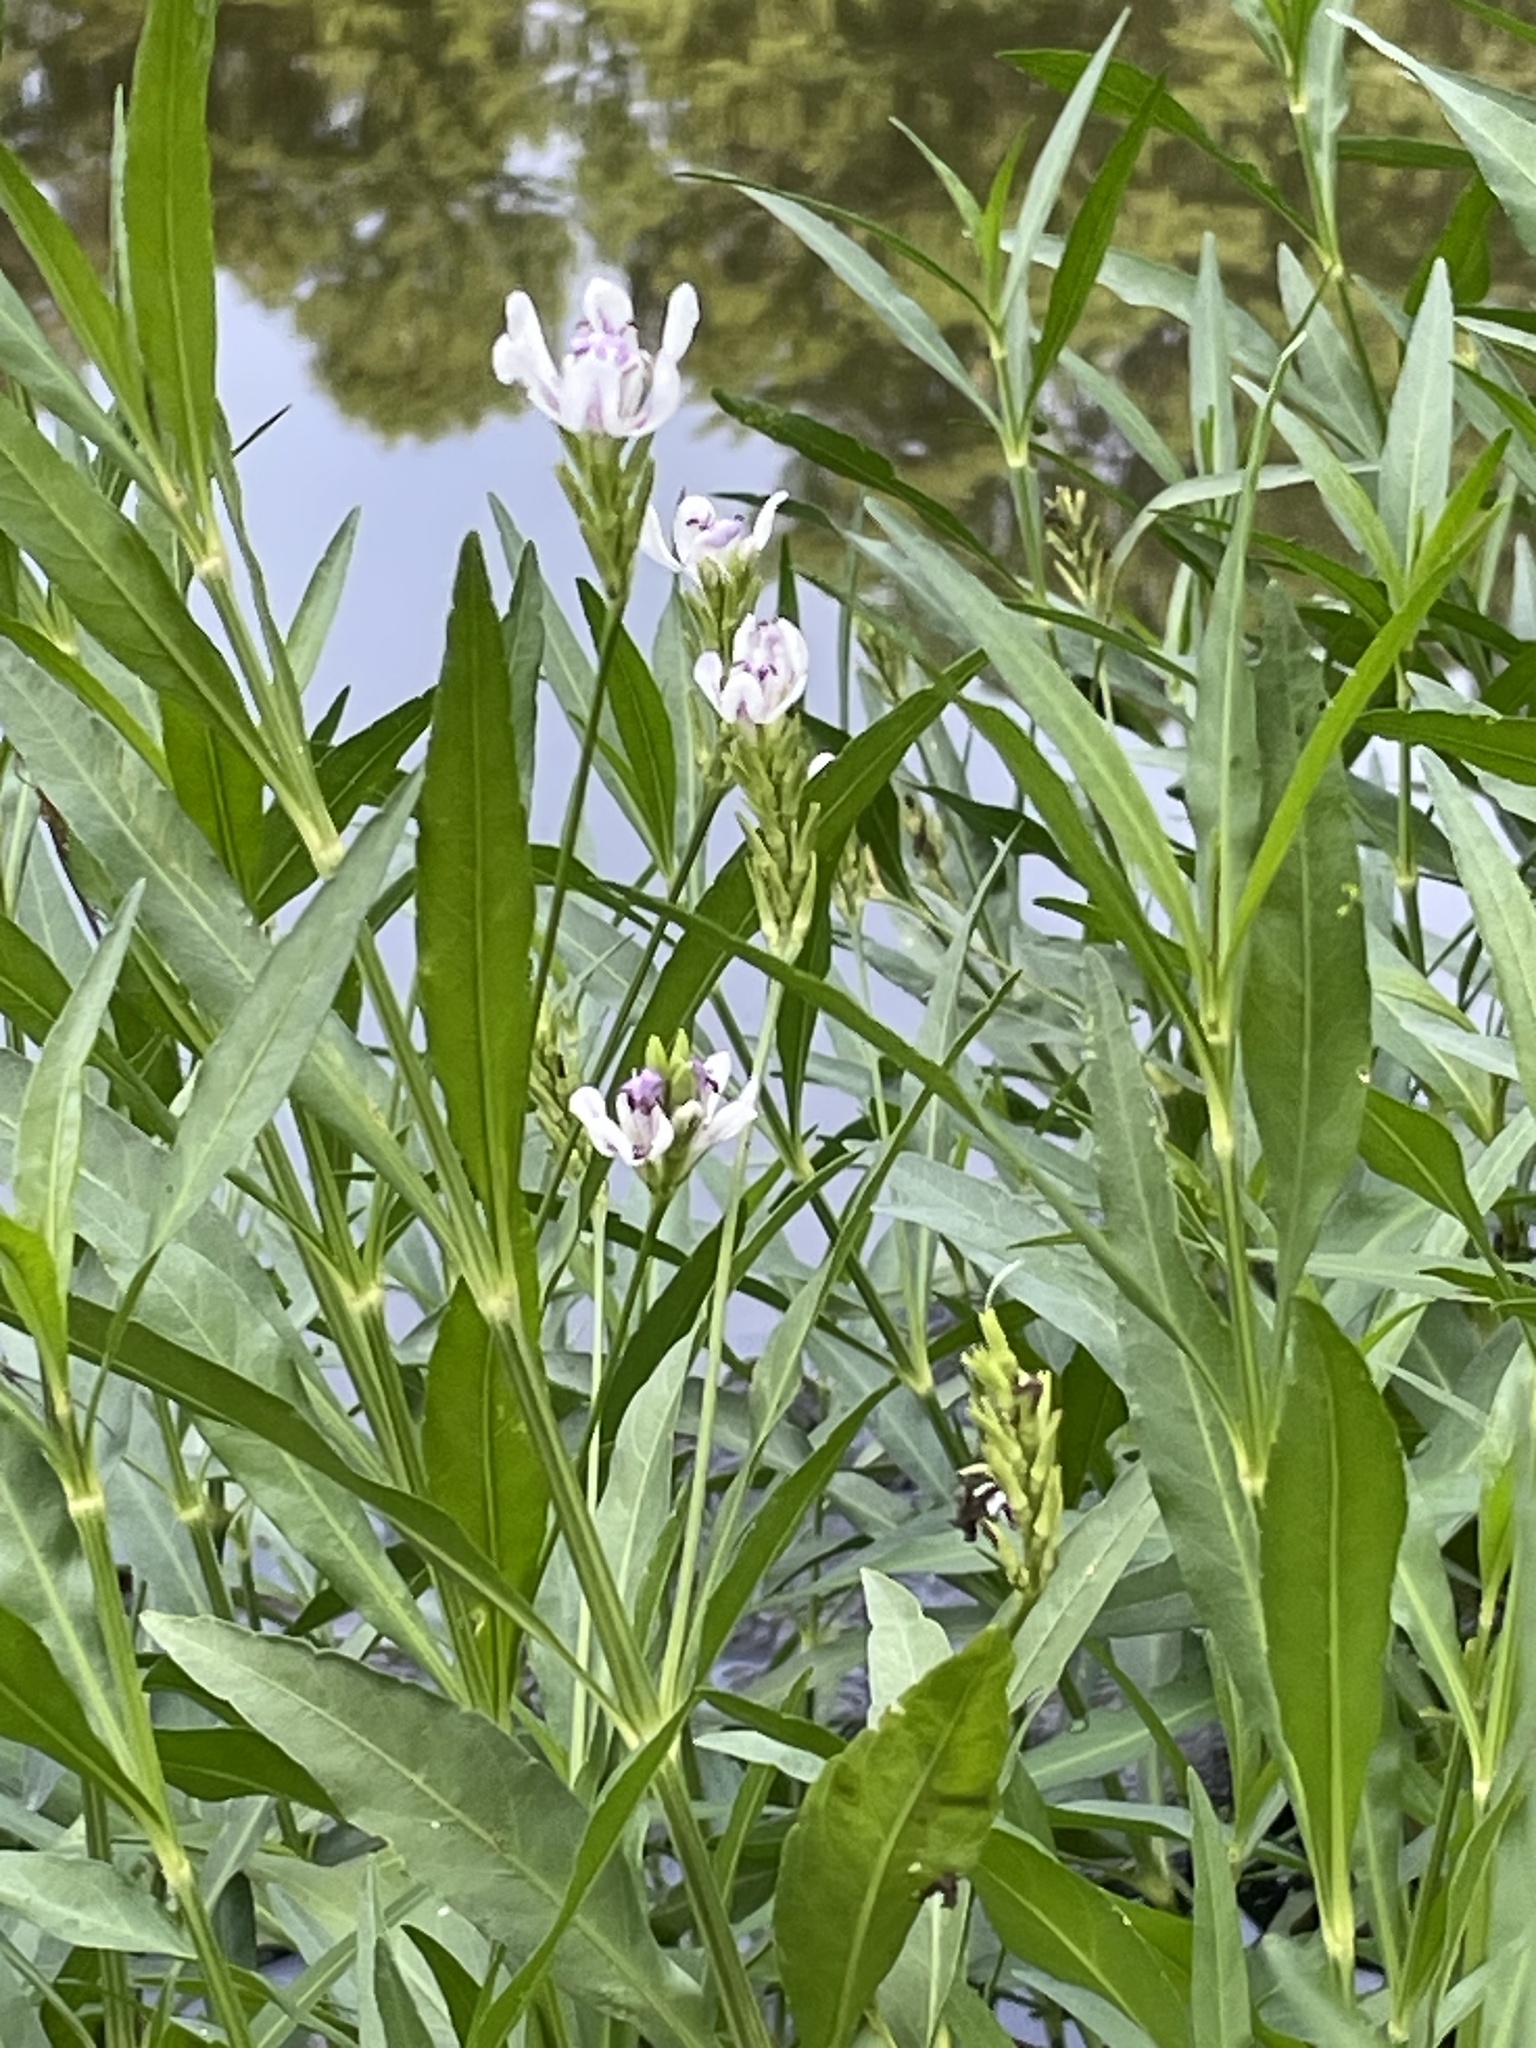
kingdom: Plantae
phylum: Tracheophyta
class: Magnoliopsida
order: Lamiales
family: Acanthaceae
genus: Dianthera
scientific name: Dianthera americana
